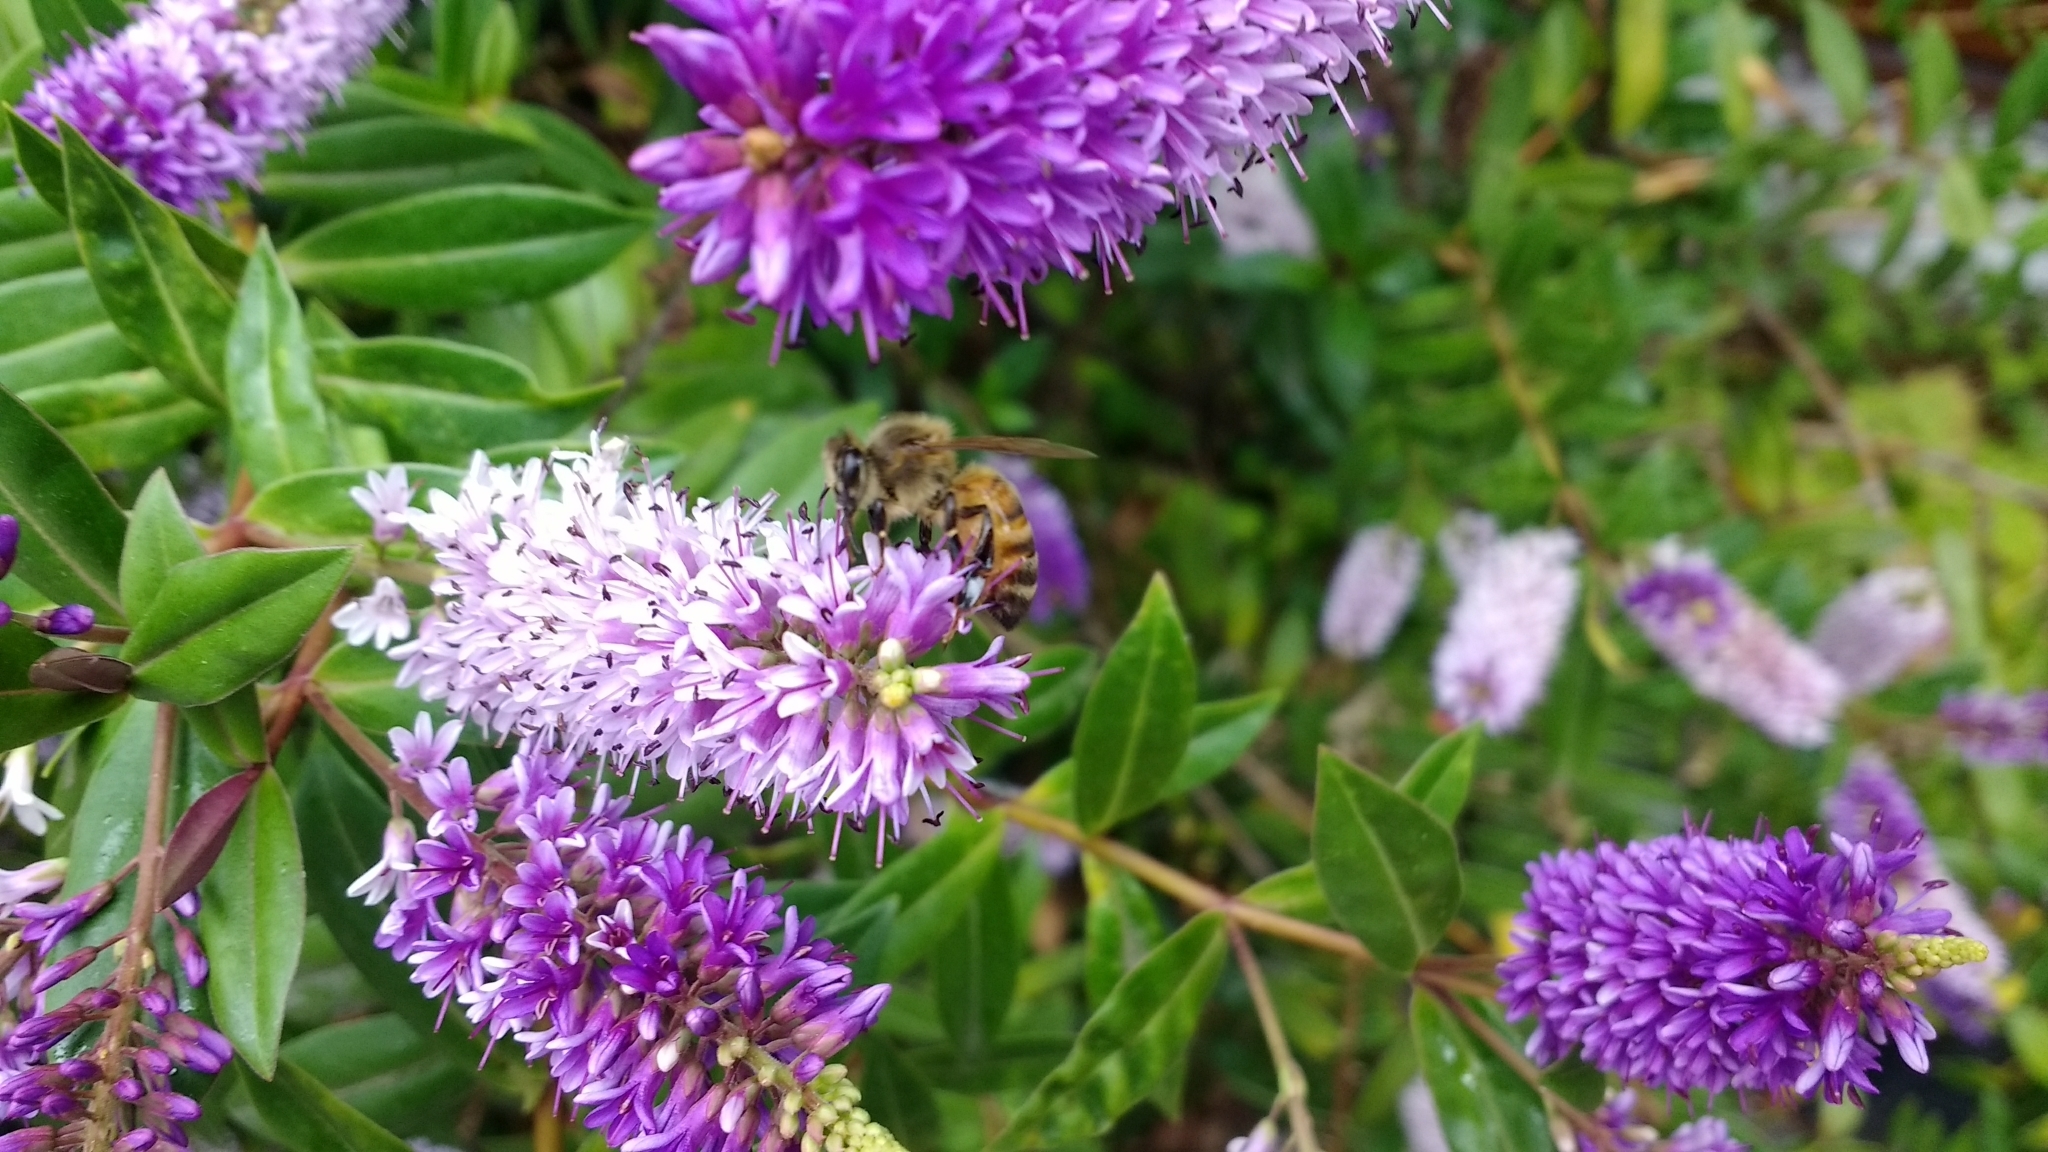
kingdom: Animalia
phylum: Arthropoda
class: Insecta
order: Hymenoptera
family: Apidae
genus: Apis
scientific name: Apis mellifera
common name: Honey bee
